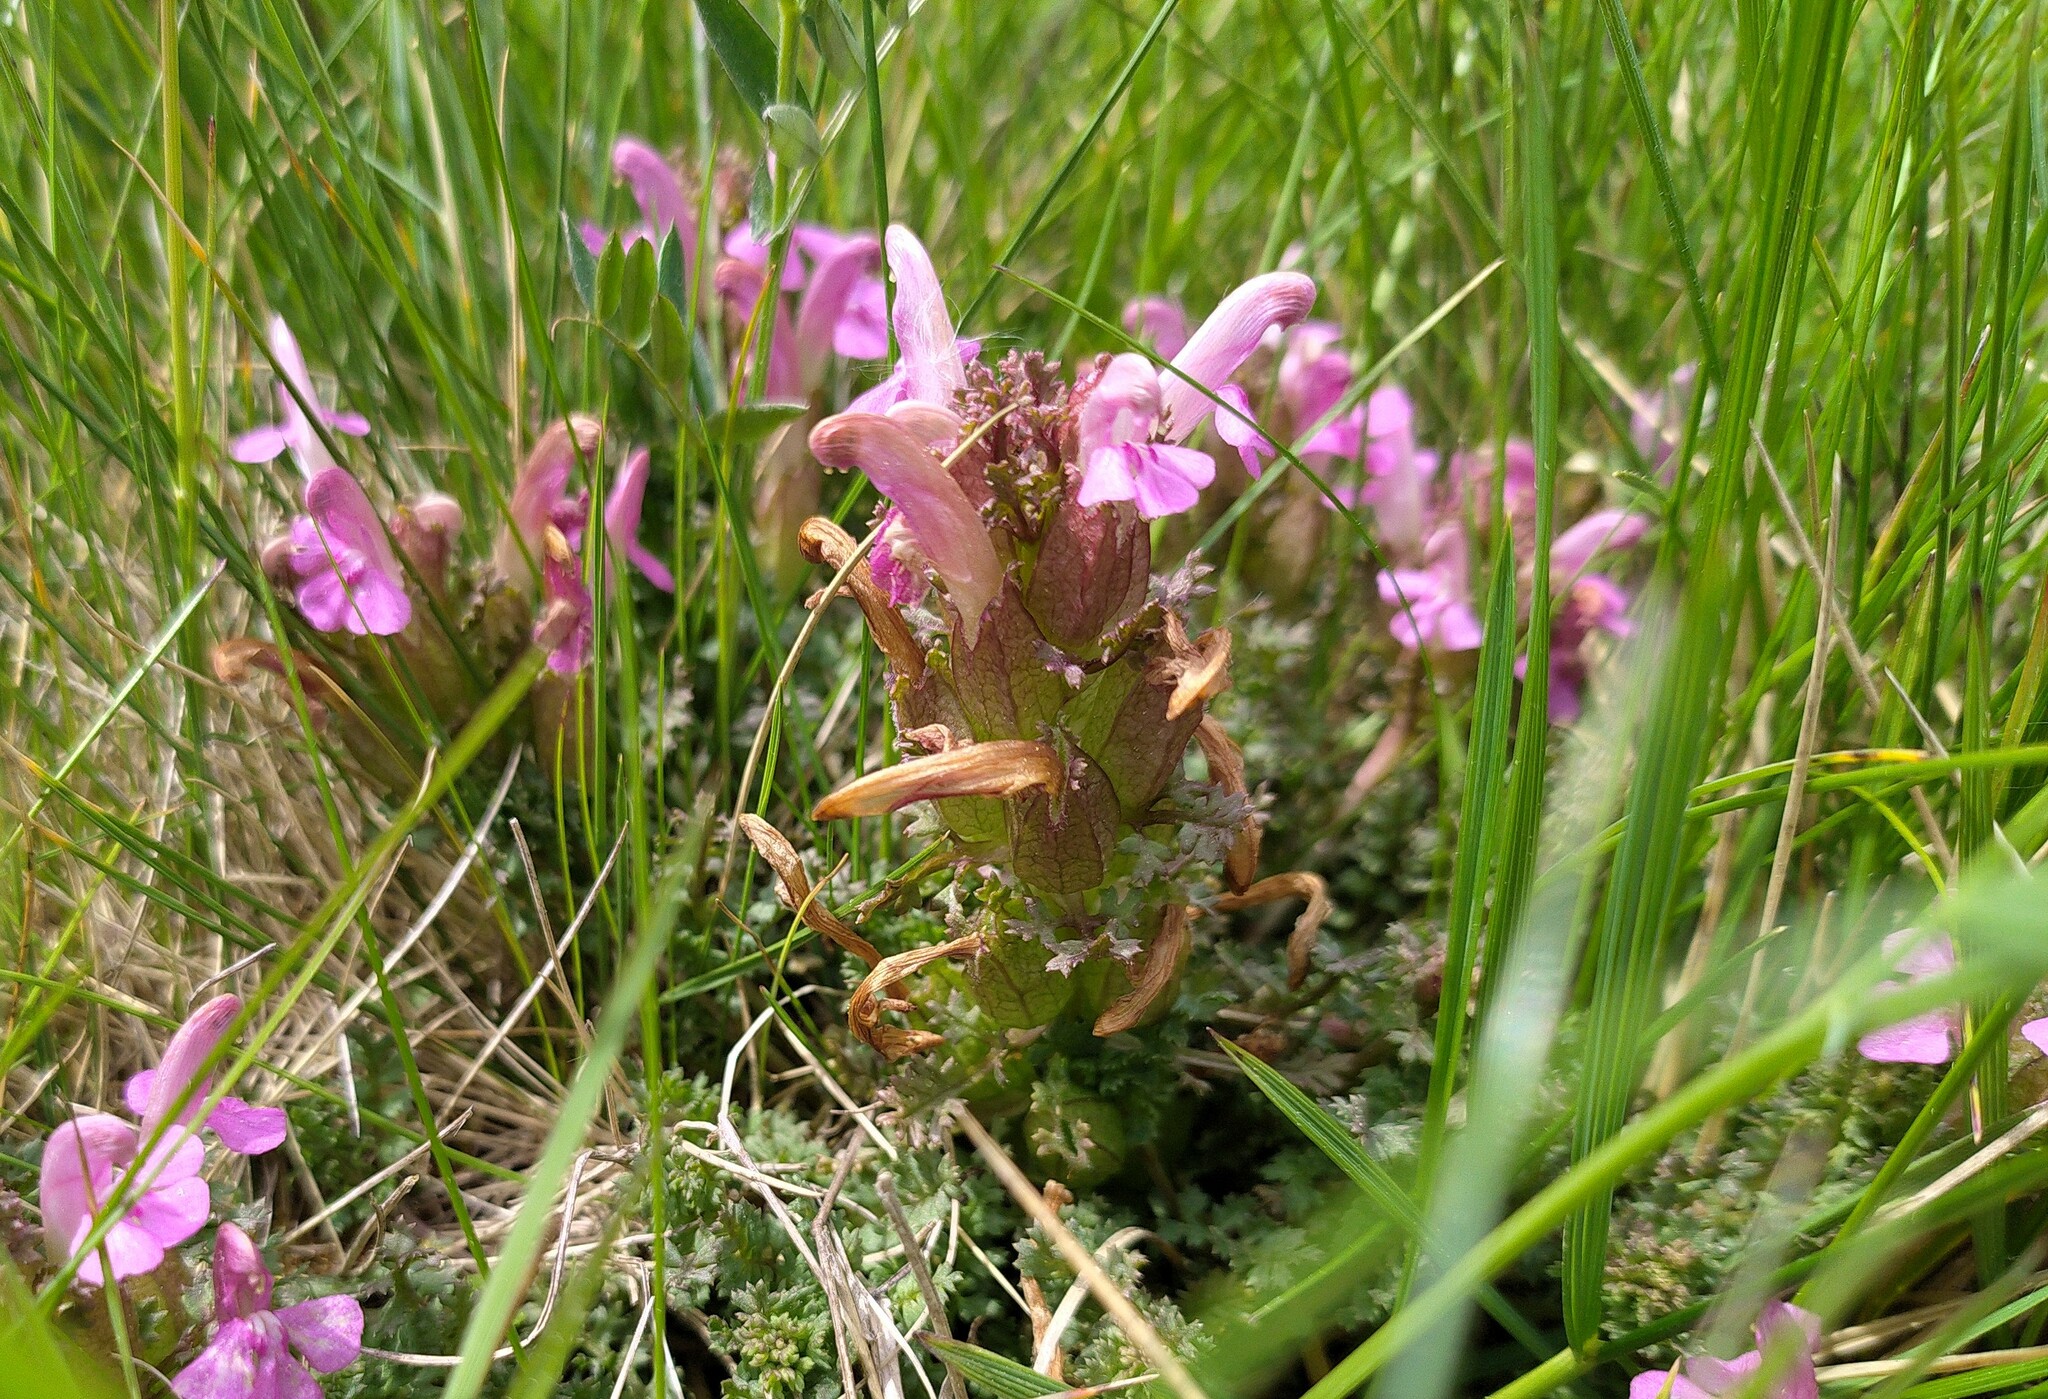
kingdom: Plantae
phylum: Tracheophyta
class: Magnoliopsida
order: Lamiales
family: Orobanchaceae
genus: Pedicularis
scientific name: Pedicularis sylvatica
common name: Lousewort
